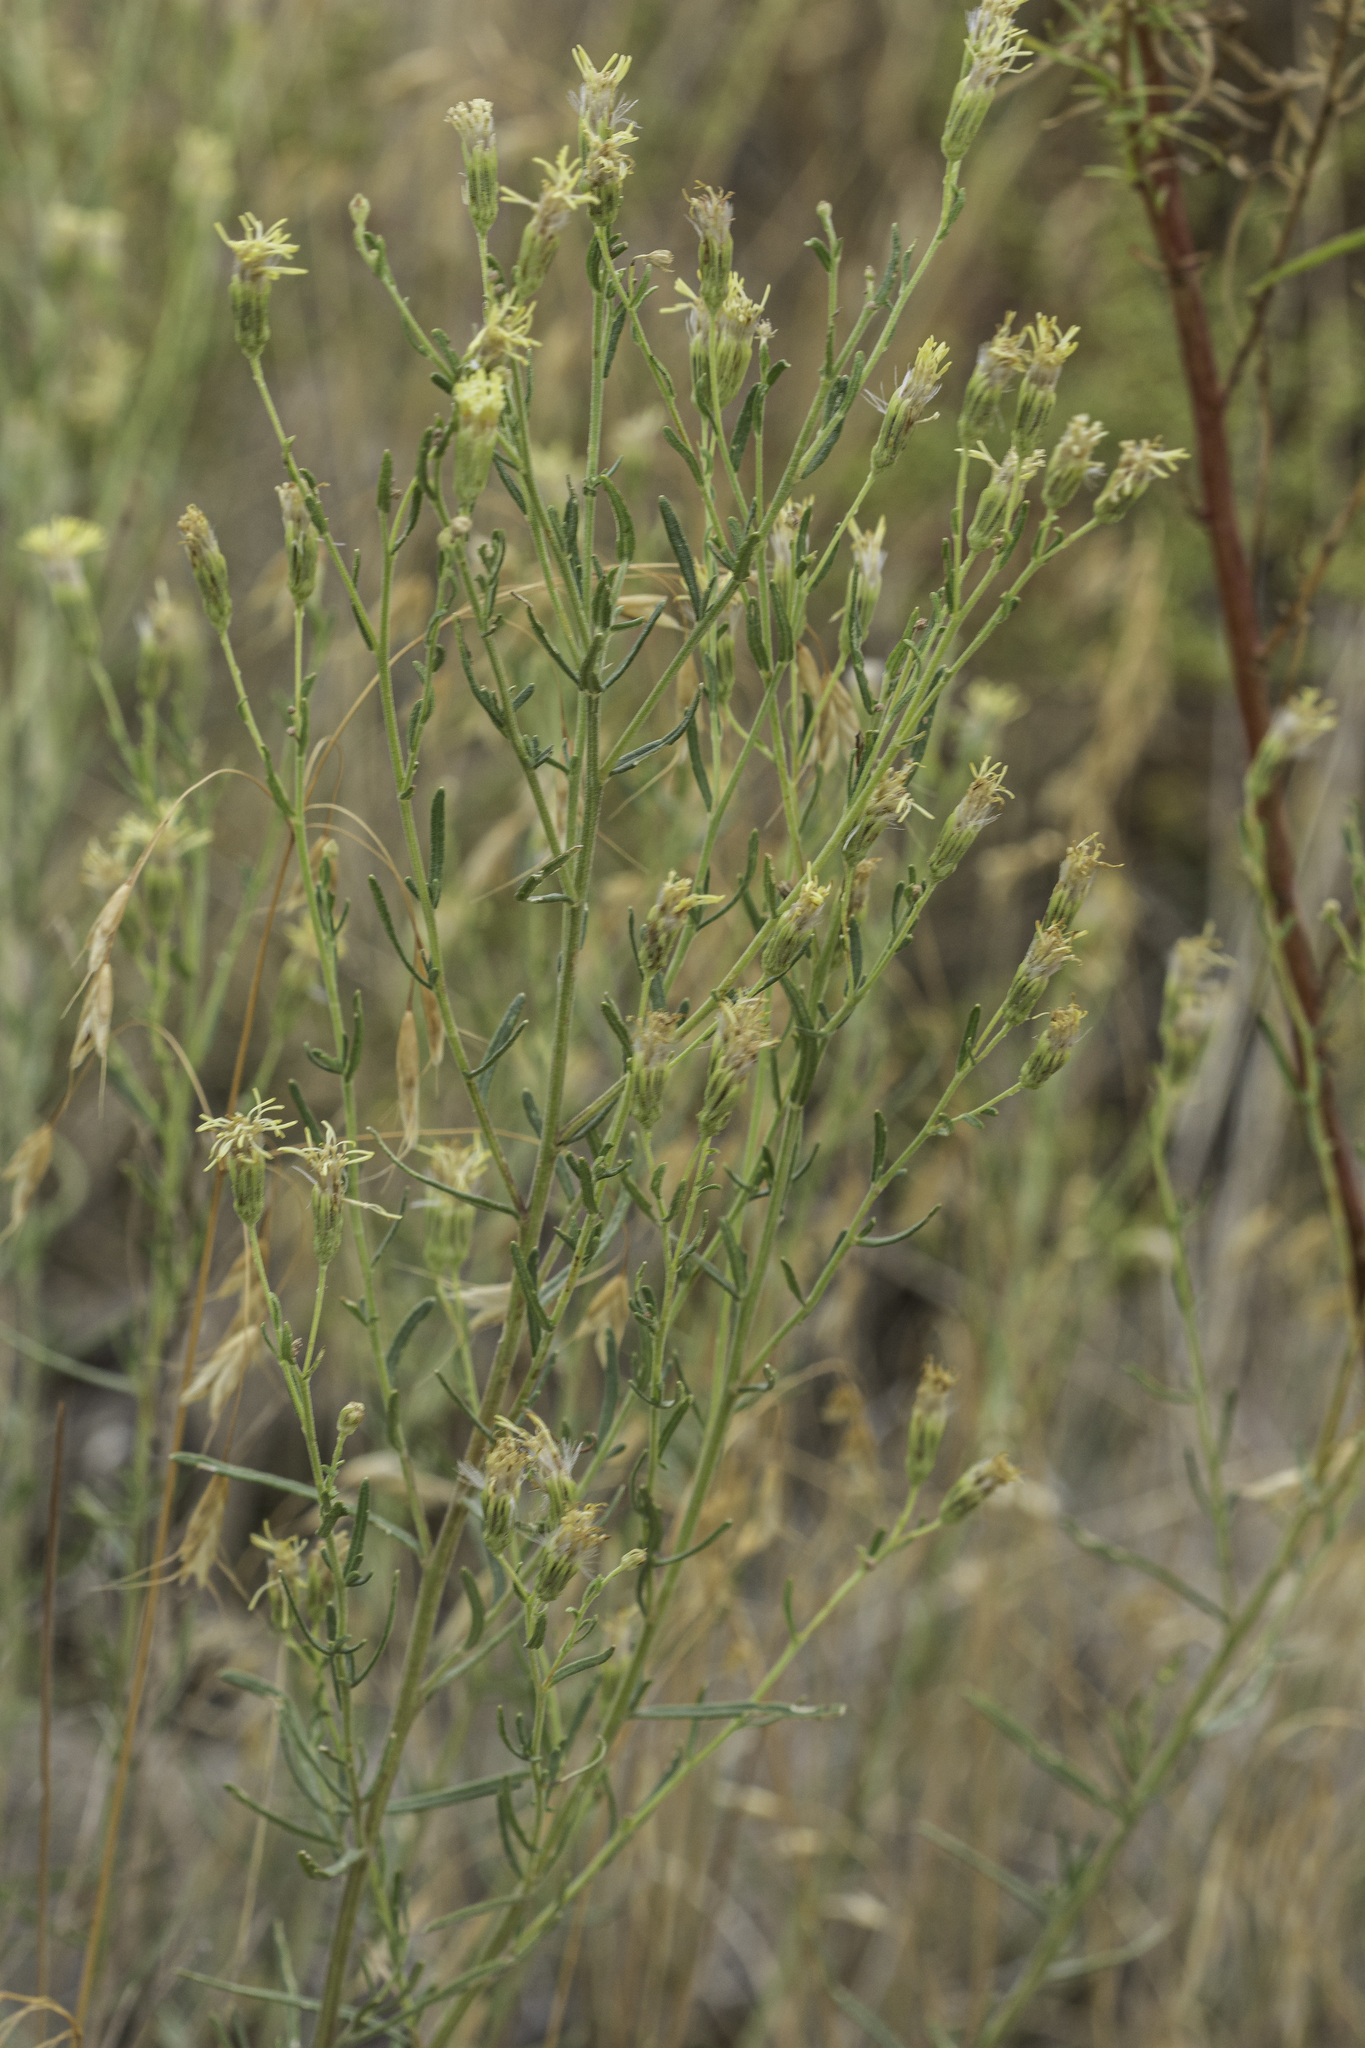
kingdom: Plantae
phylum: Tracheophyta
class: Magnoliopsida
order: Asterales
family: Asteraceae
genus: Brickellia
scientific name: Brickellia eupatorioides
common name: False boneset
